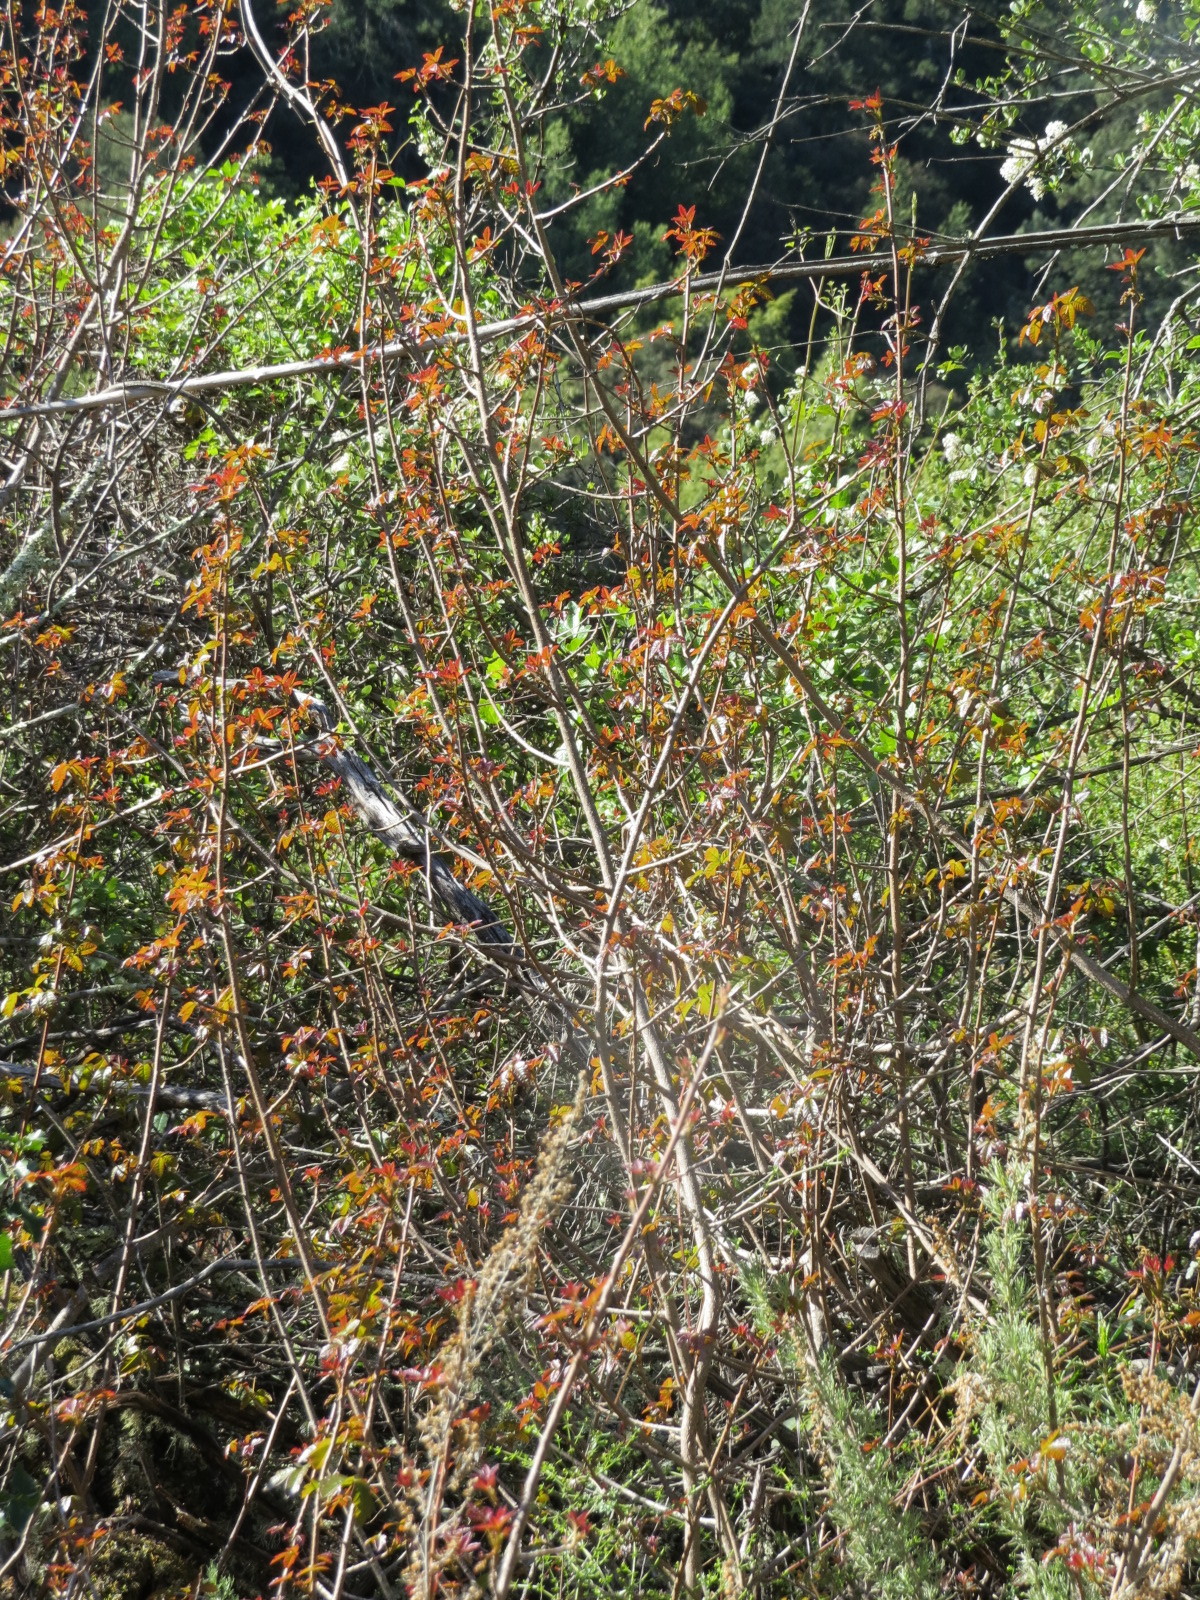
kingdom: Plantae
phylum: Tracheophyta
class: Magnoliopsida
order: Sapindales
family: Anacardiaceae
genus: Toxicodendron
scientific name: Toxicodendron diversilobum
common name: Pacific poison-oak
